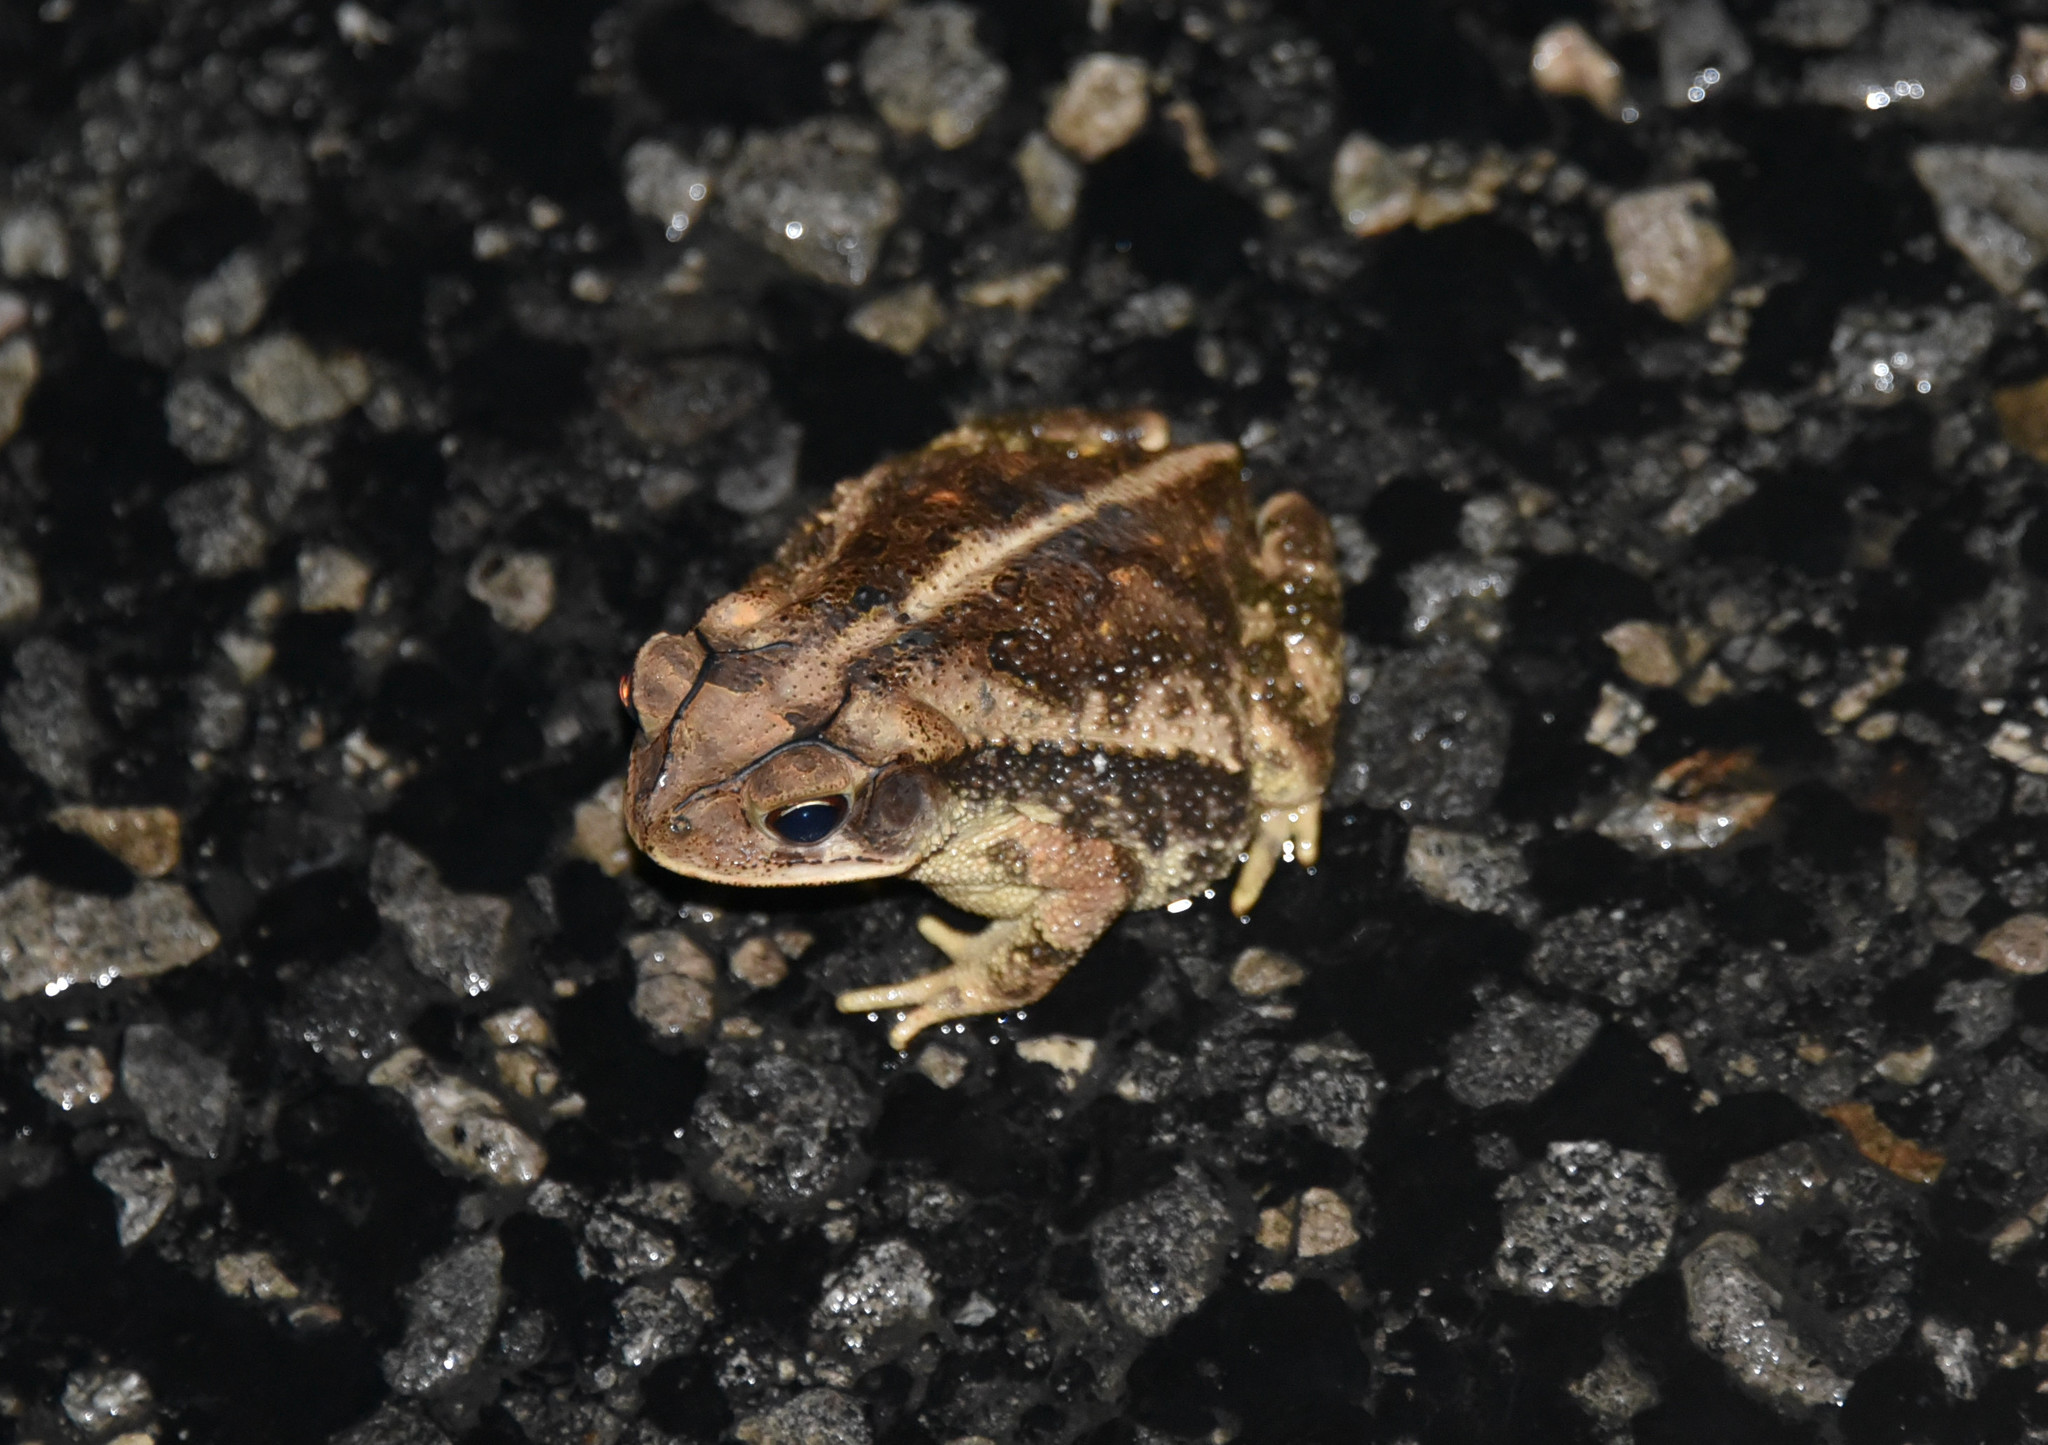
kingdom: Animalia
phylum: Chordata
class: Amphibia
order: Anura
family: Bufonidae
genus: Incilius
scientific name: Incilius nebulifer
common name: Gulf coast toad
